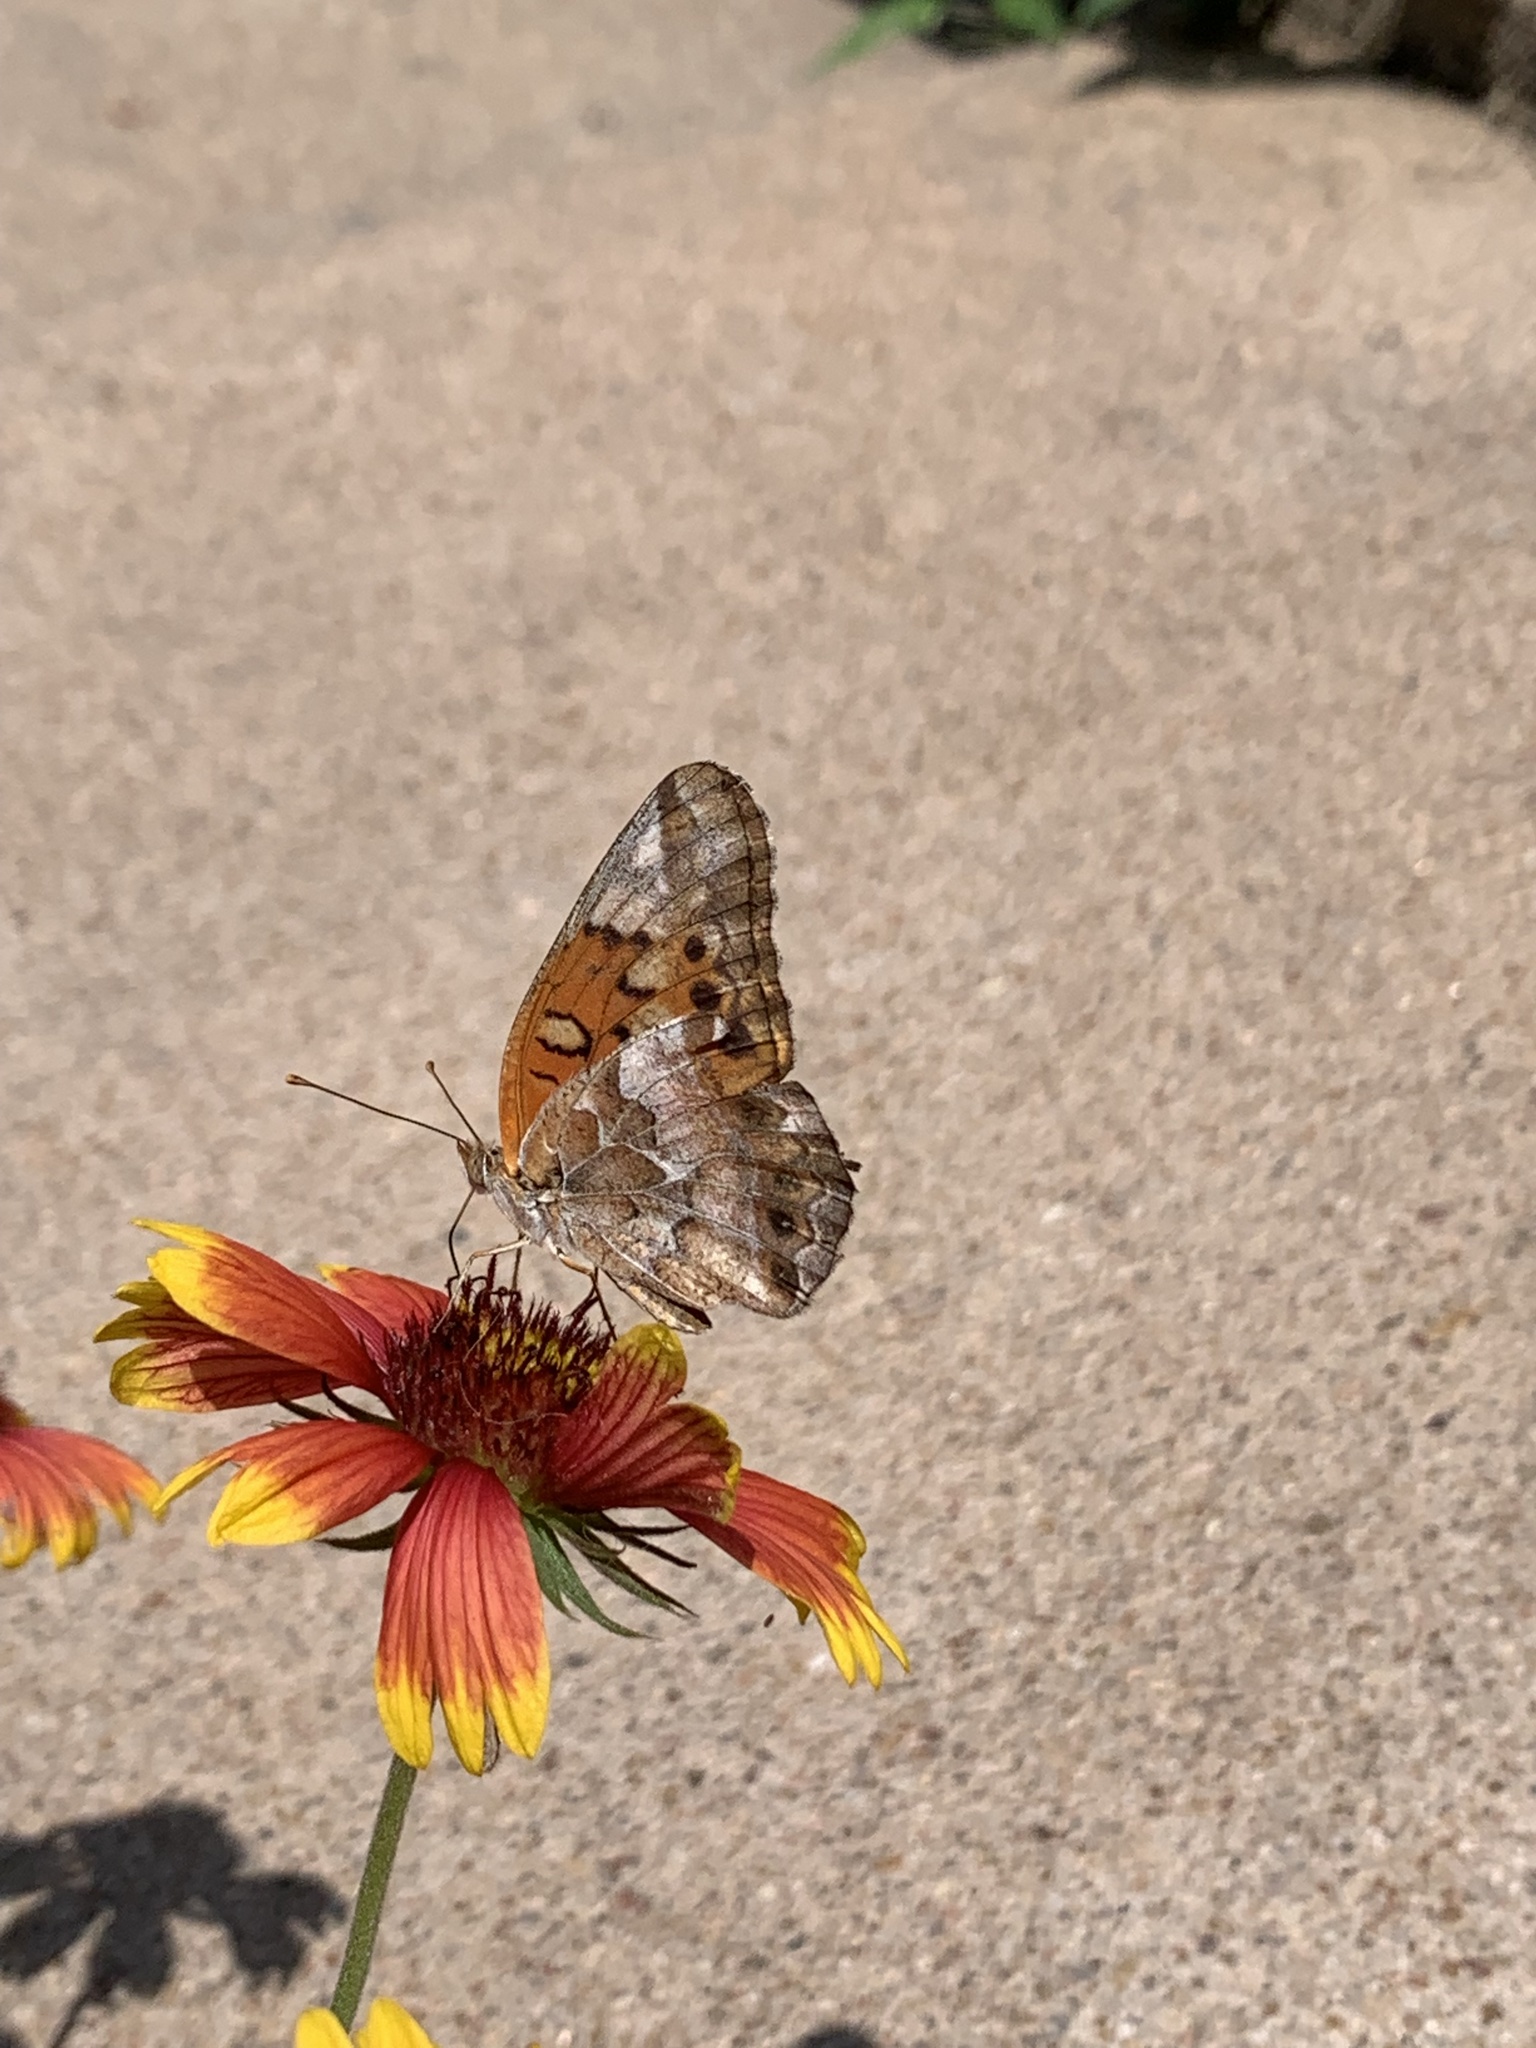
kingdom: Animalia
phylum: Arthropoda
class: Insecta
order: Lepidoptera
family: Nymphalidae
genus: Euptoieta
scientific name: Euptoieta claudia
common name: Variegated fritillary
